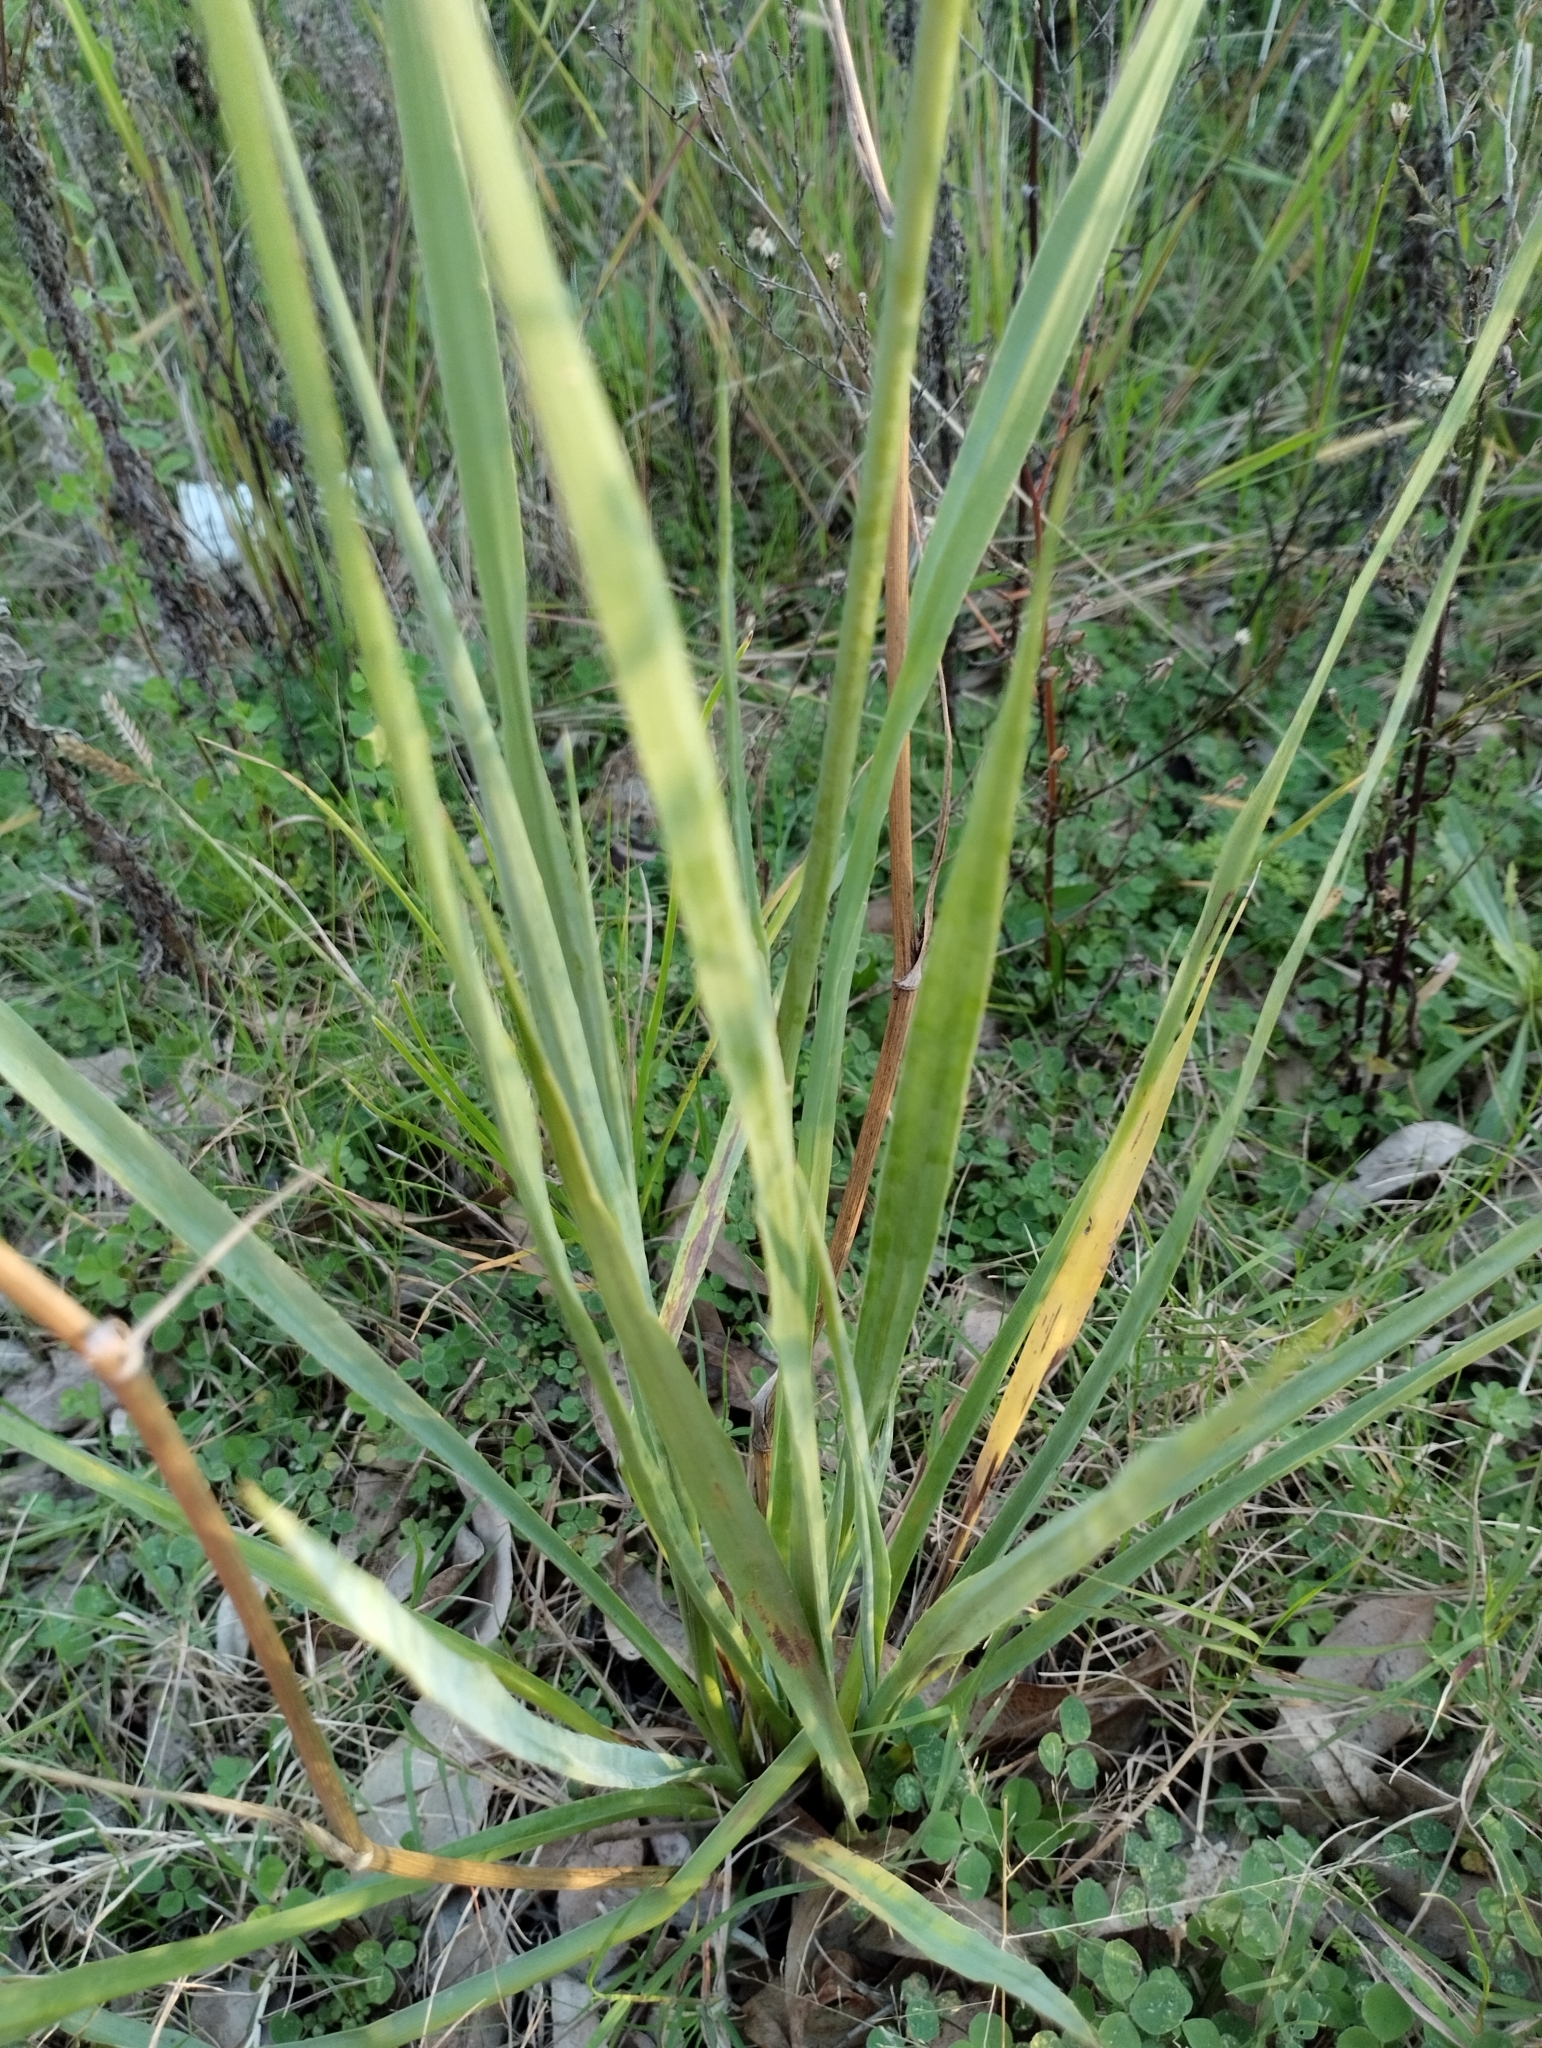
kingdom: Plantae
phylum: Tracheophyta
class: Magnoliopsida
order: Apiales
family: Apiaceae
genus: Eryngium
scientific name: Eryngium ebracteatum
